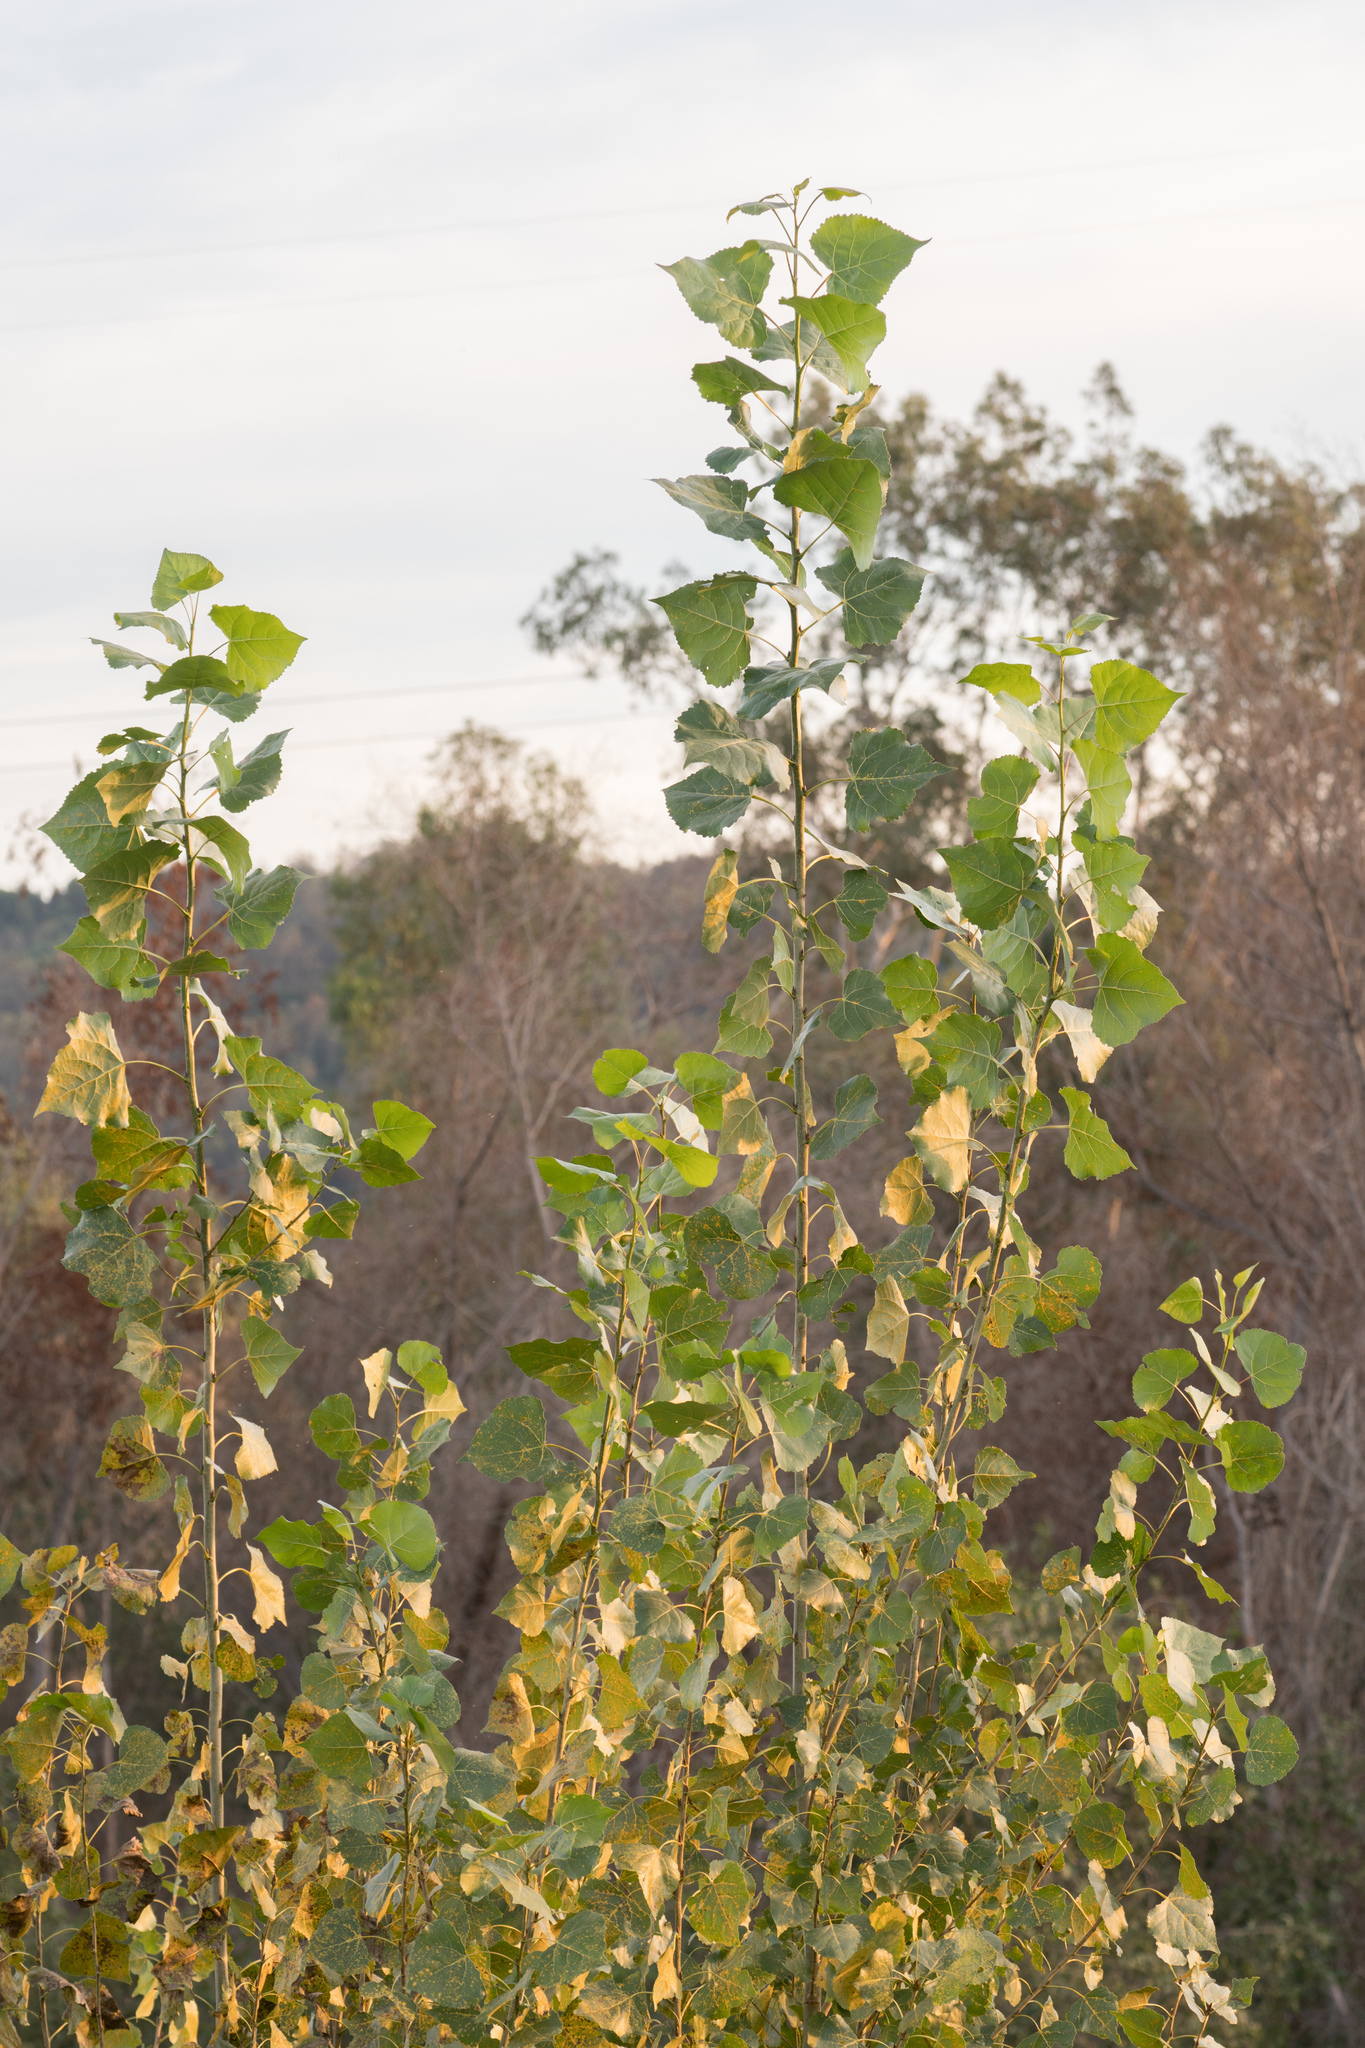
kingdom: Plantae
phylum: Tracheophyta
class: Magnoliopsida
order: Malpighiales
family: Salicaceae
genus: Populus
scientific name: Populus fremontii
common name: Fremont's cottonwood
